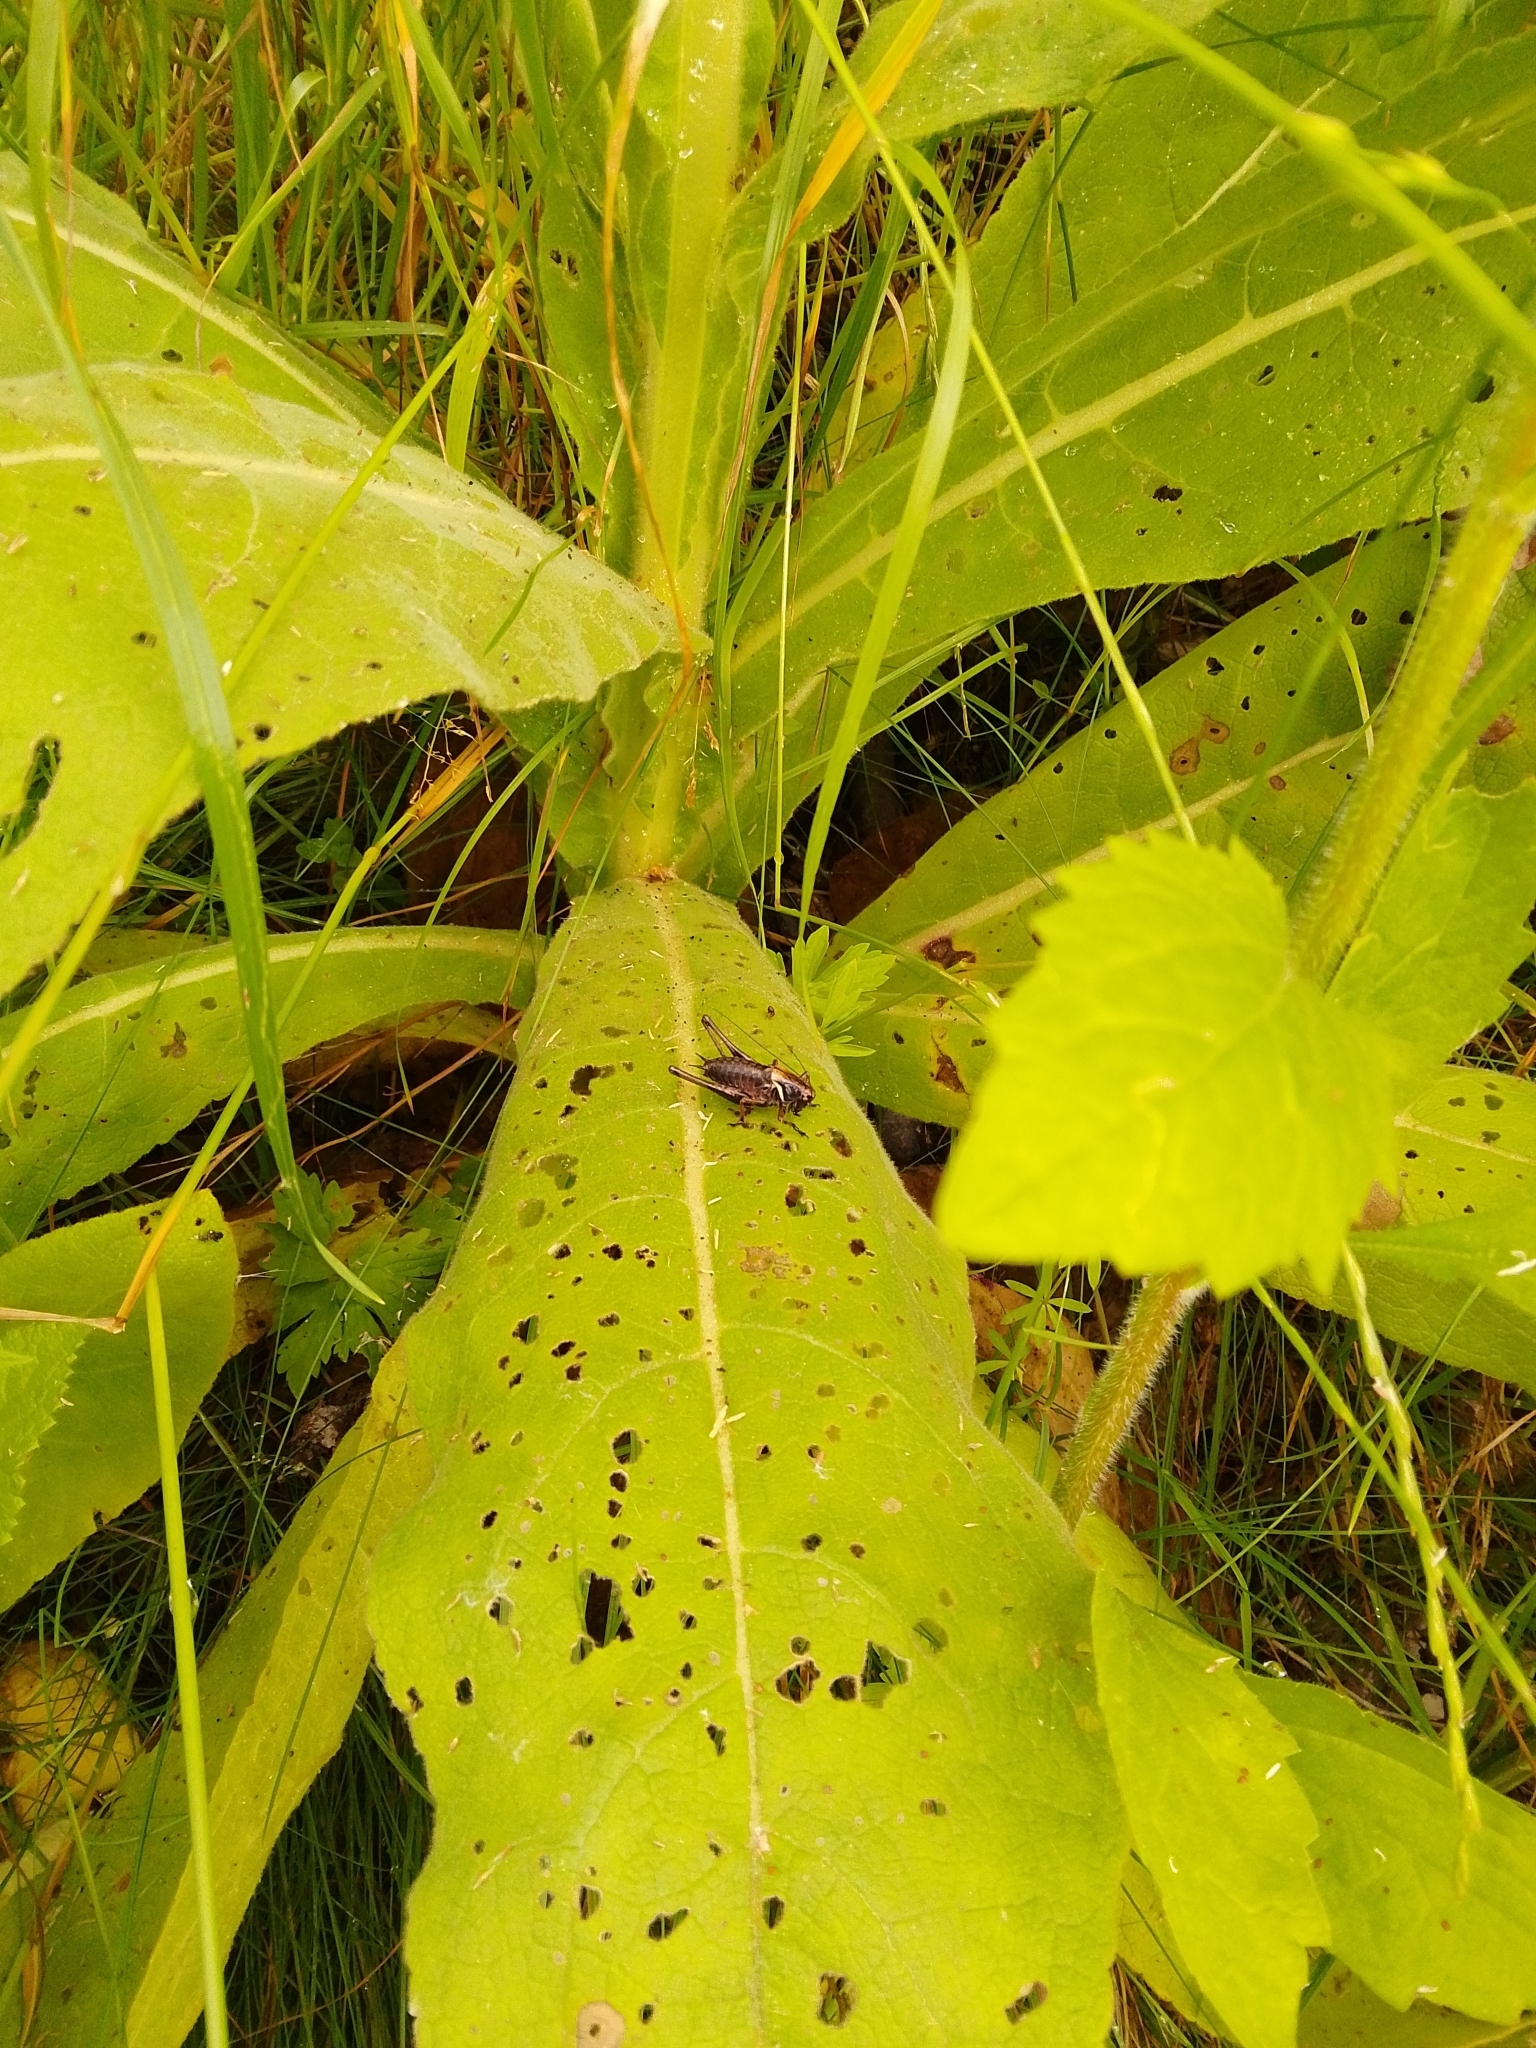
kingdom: Animalia
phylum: Arthropoda
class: Insecta
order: Orthoptera
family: Tettigoniidae
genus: Pholidoptera
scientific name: Pholidoptera aptera
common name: Alpine dark bush-cricket
